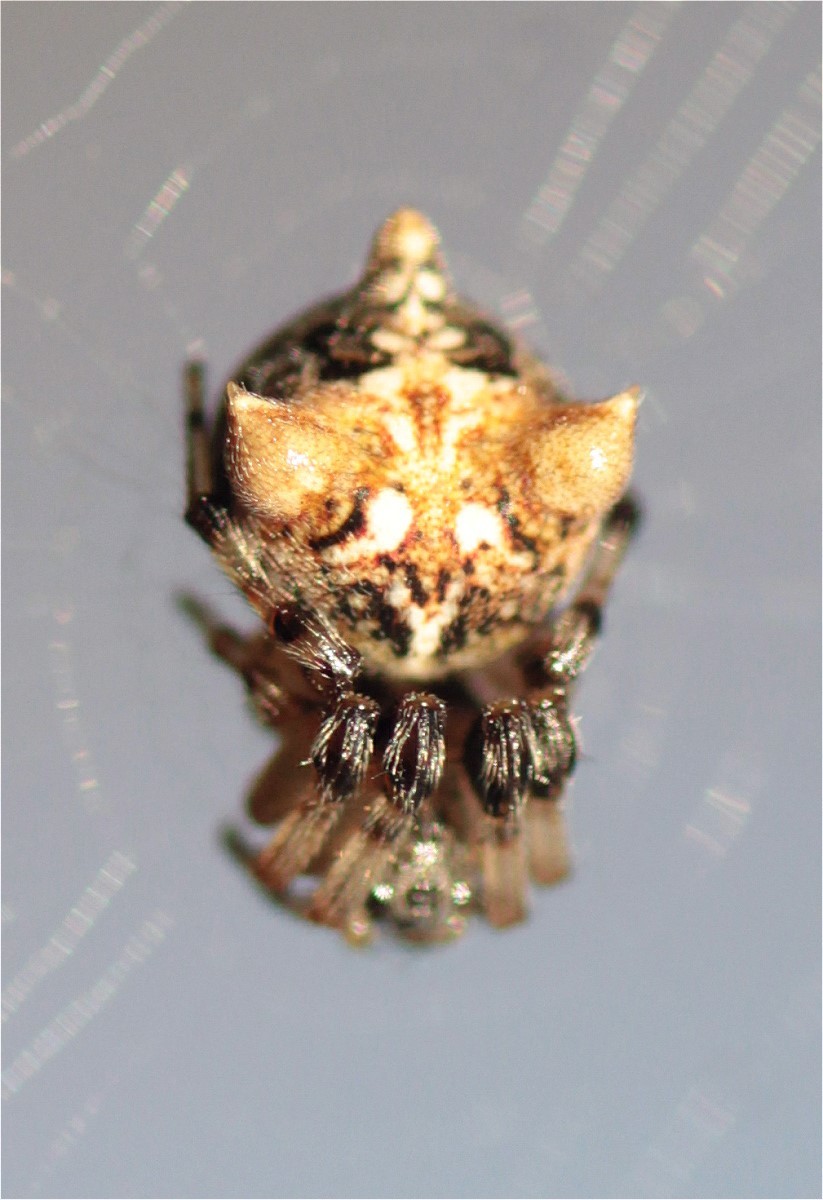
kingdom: Animalia
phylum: Arthropoda
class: Arachnida
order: Araneae
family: Araneidae
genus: Cyclosa
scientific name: Cyclosa triquetra
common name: Orb weavers
